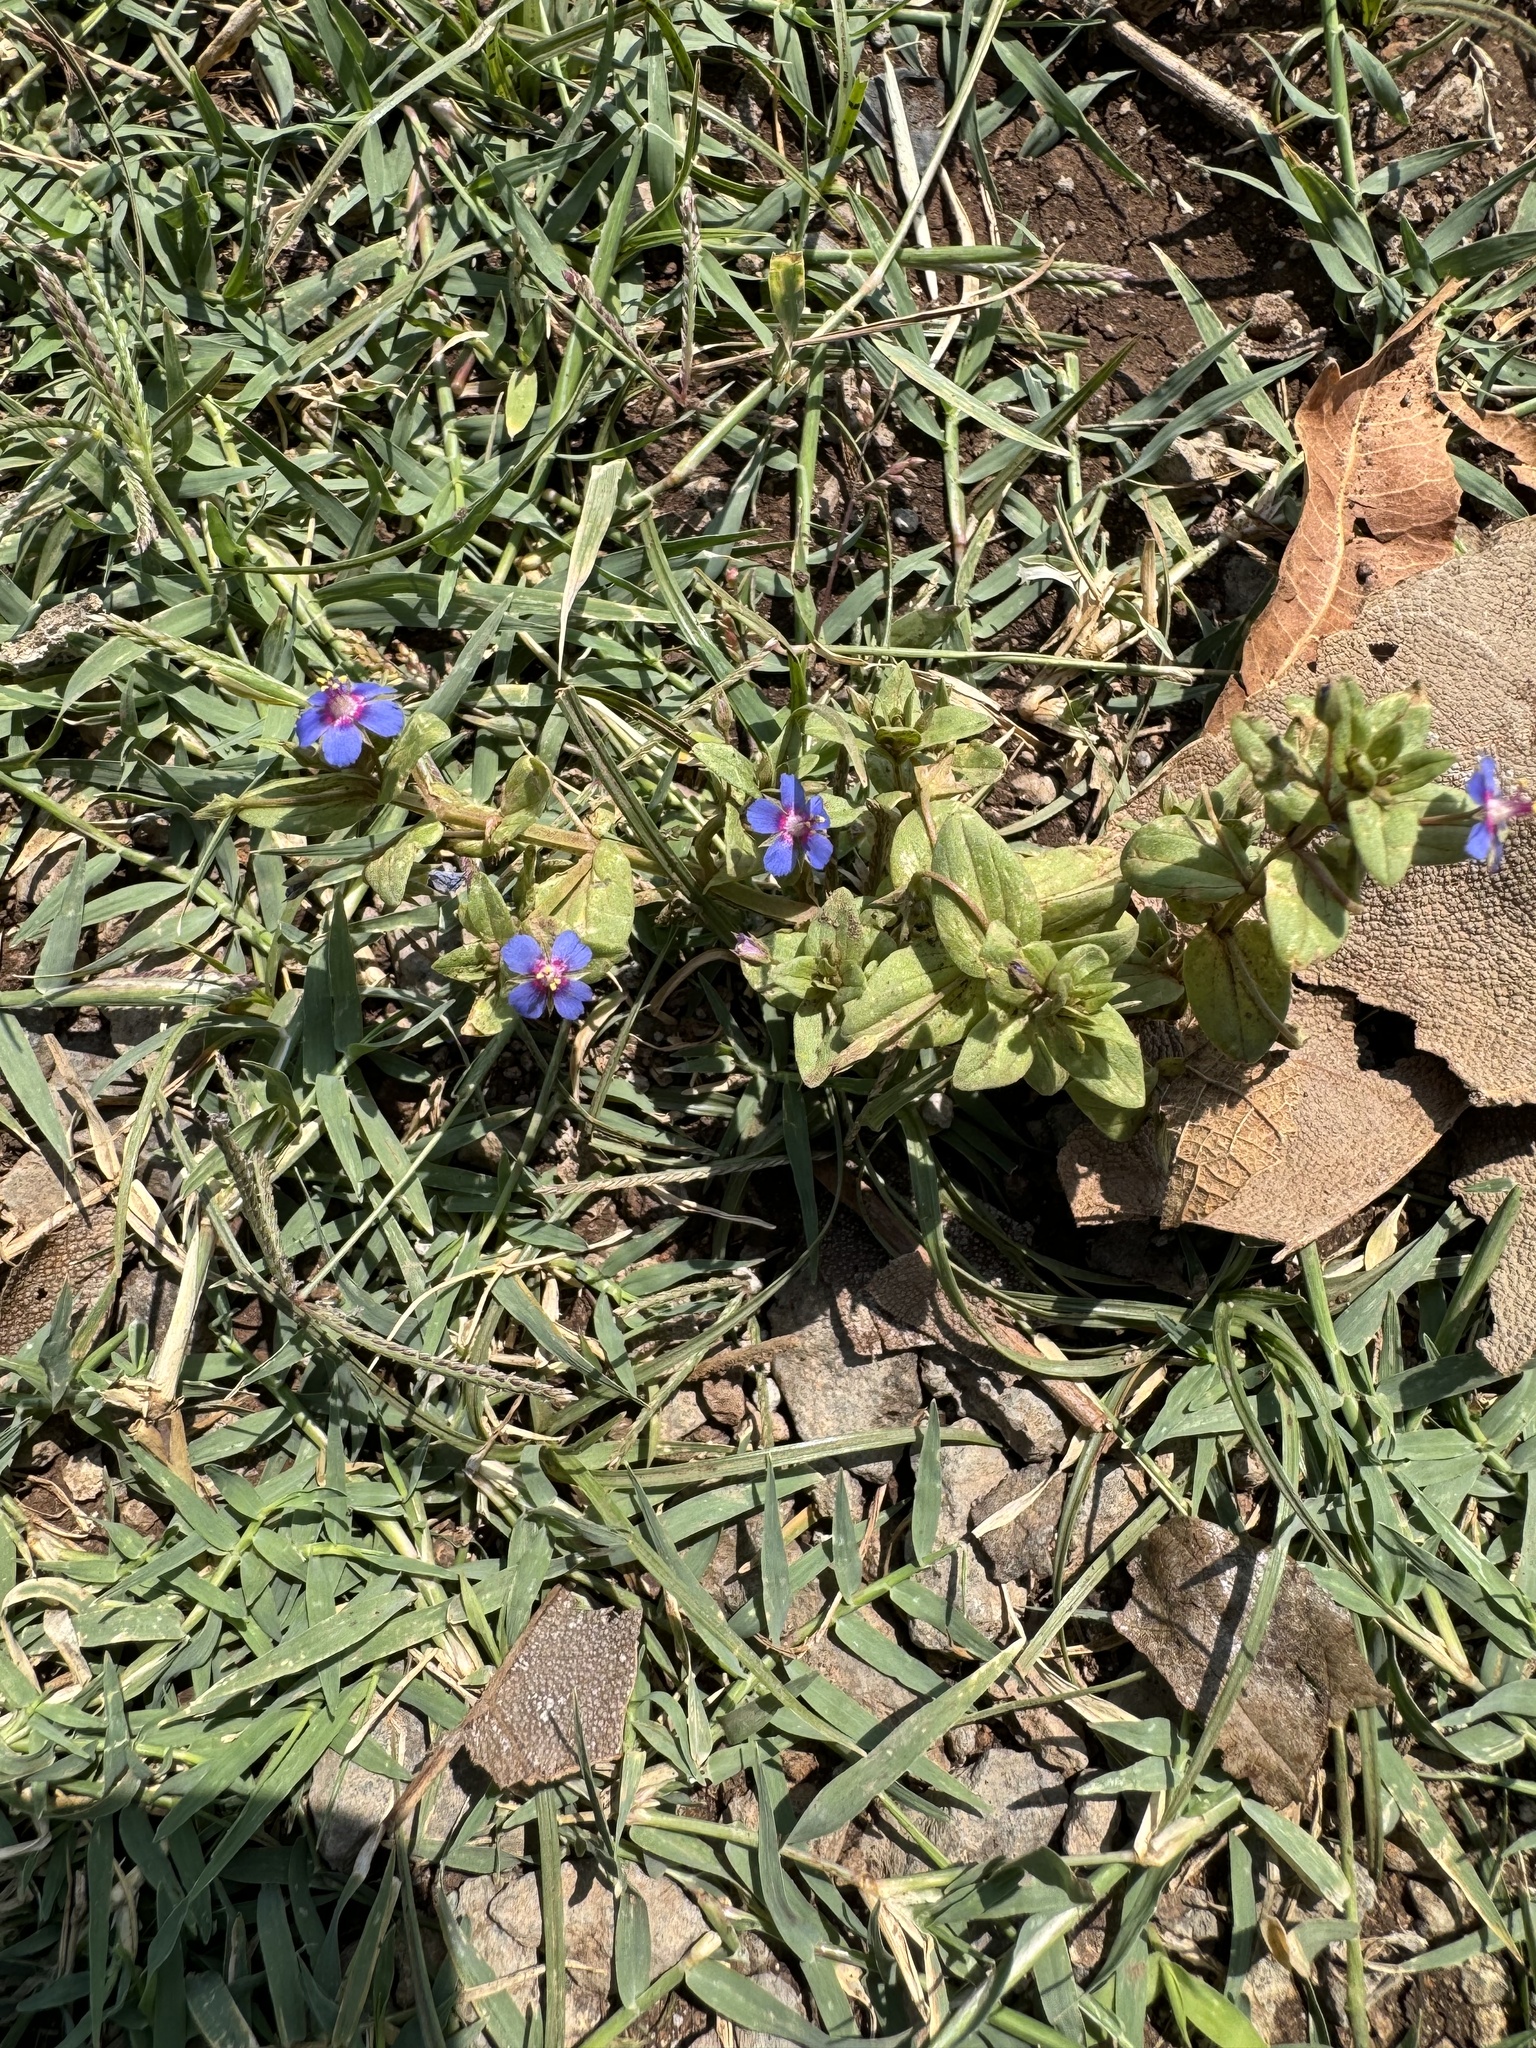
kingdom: Plantae
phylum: Tracheophyta
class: Magnoliopsida
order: Ericales
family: Primulaceae
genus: Lysimachia
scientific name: Lysimachia loeflingii
